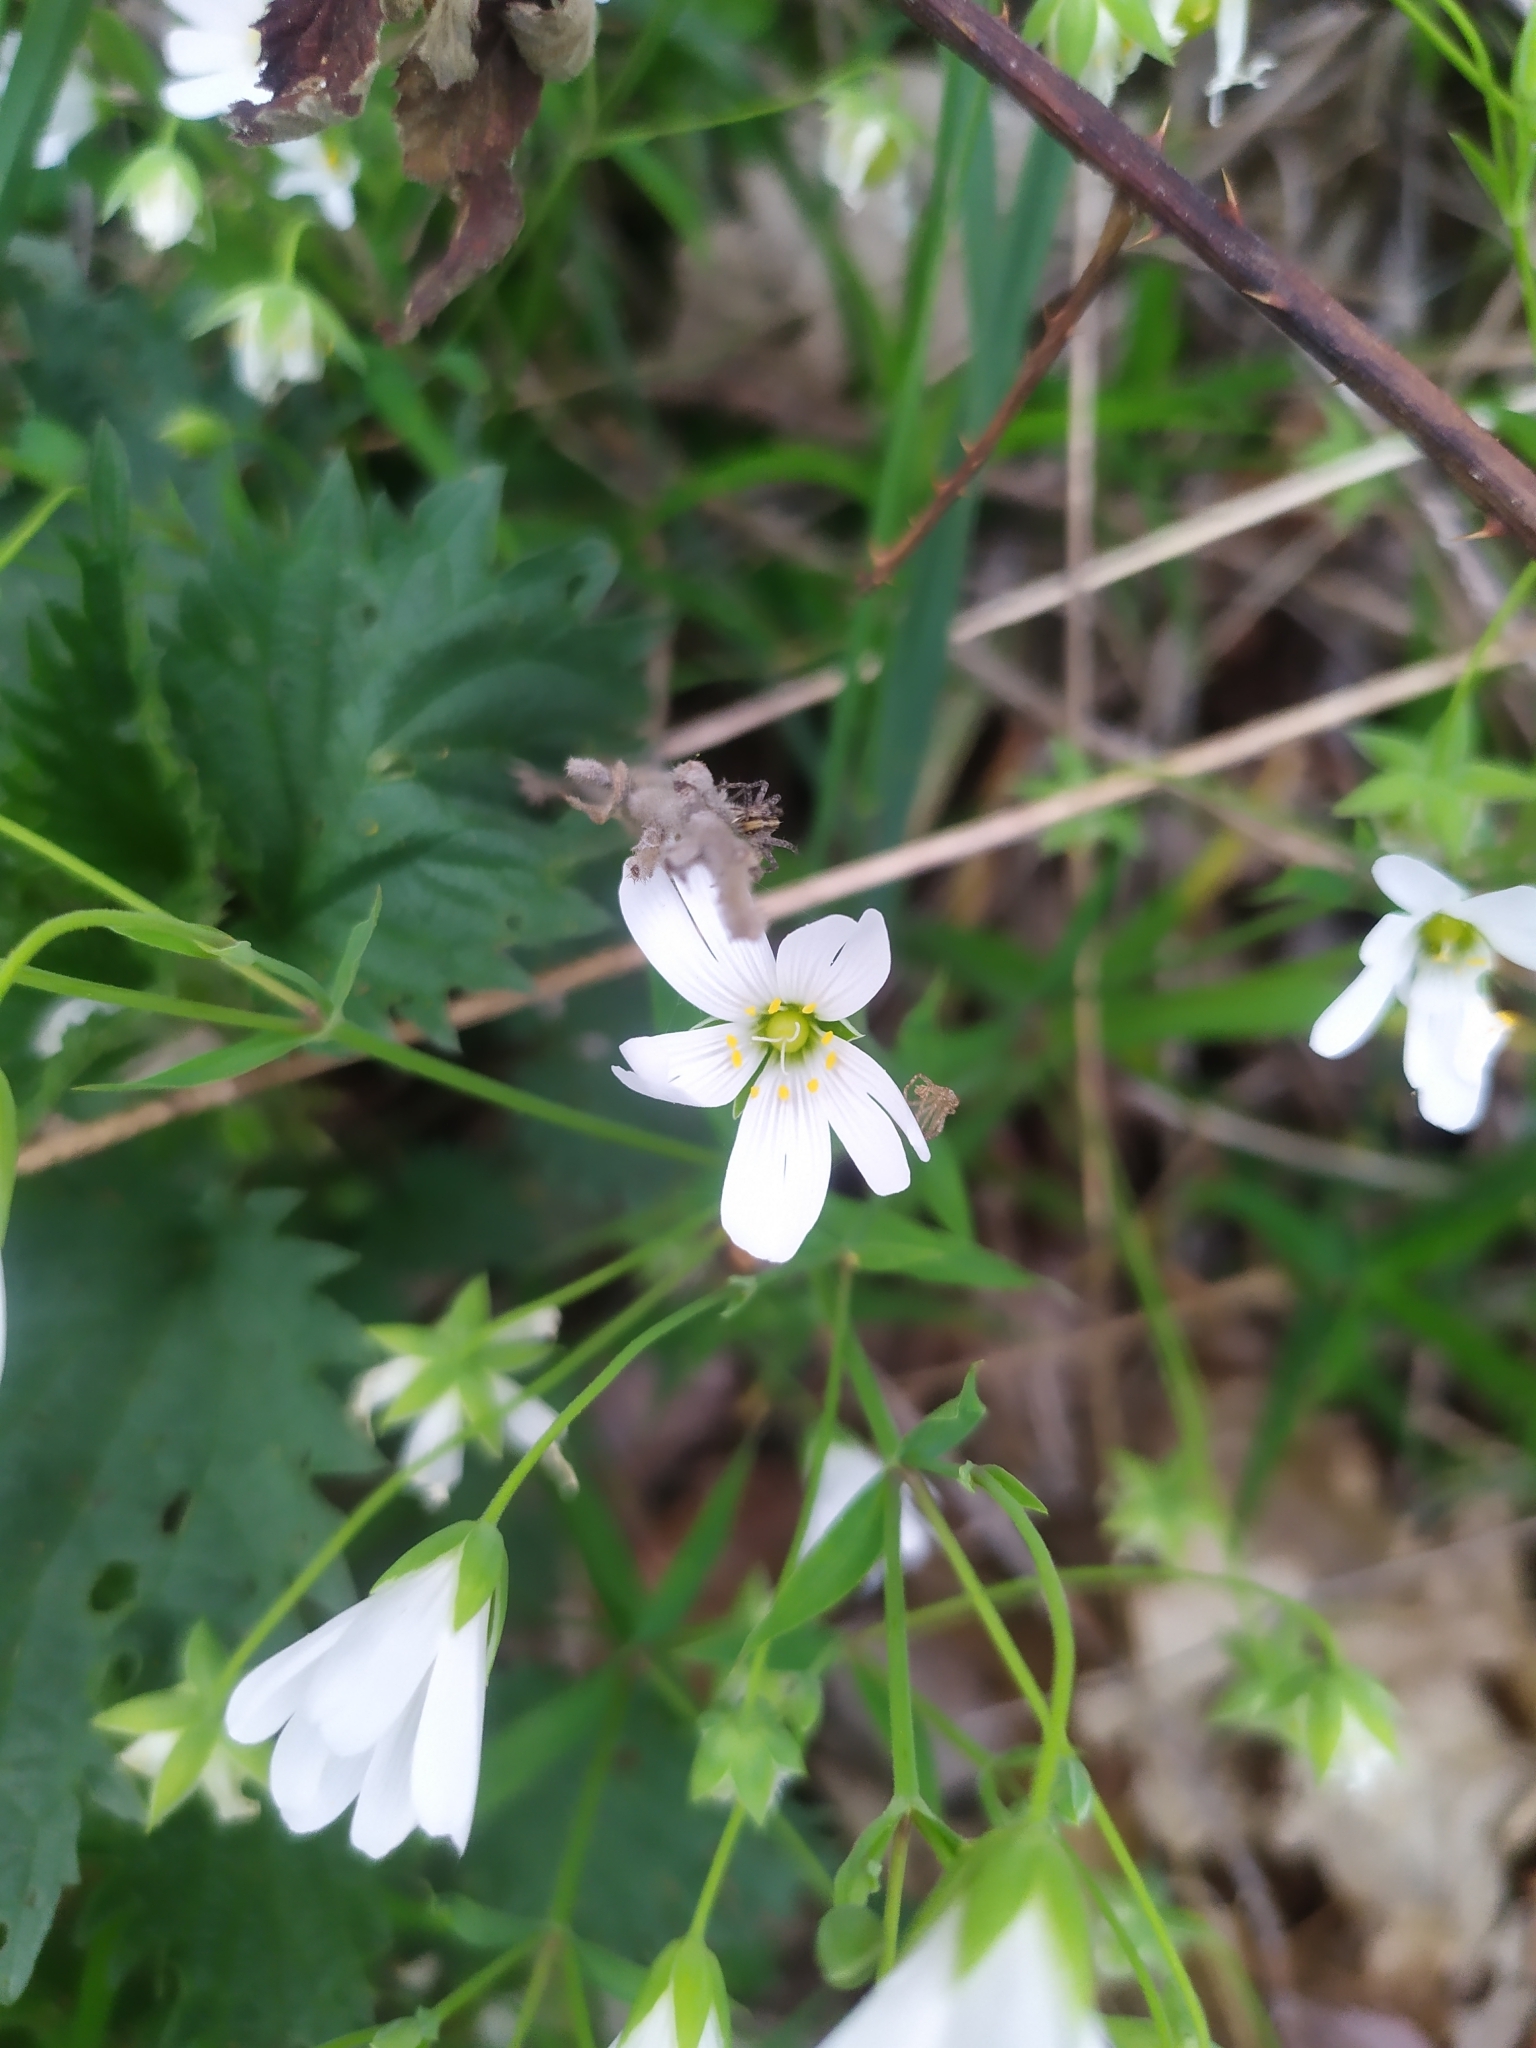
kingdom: Plantae
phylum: Tracheophyta
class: Magnoliopsida
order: Caryophyllales
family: Caryophyllaceae
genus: Rabelera
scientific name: Rabelera holostea
